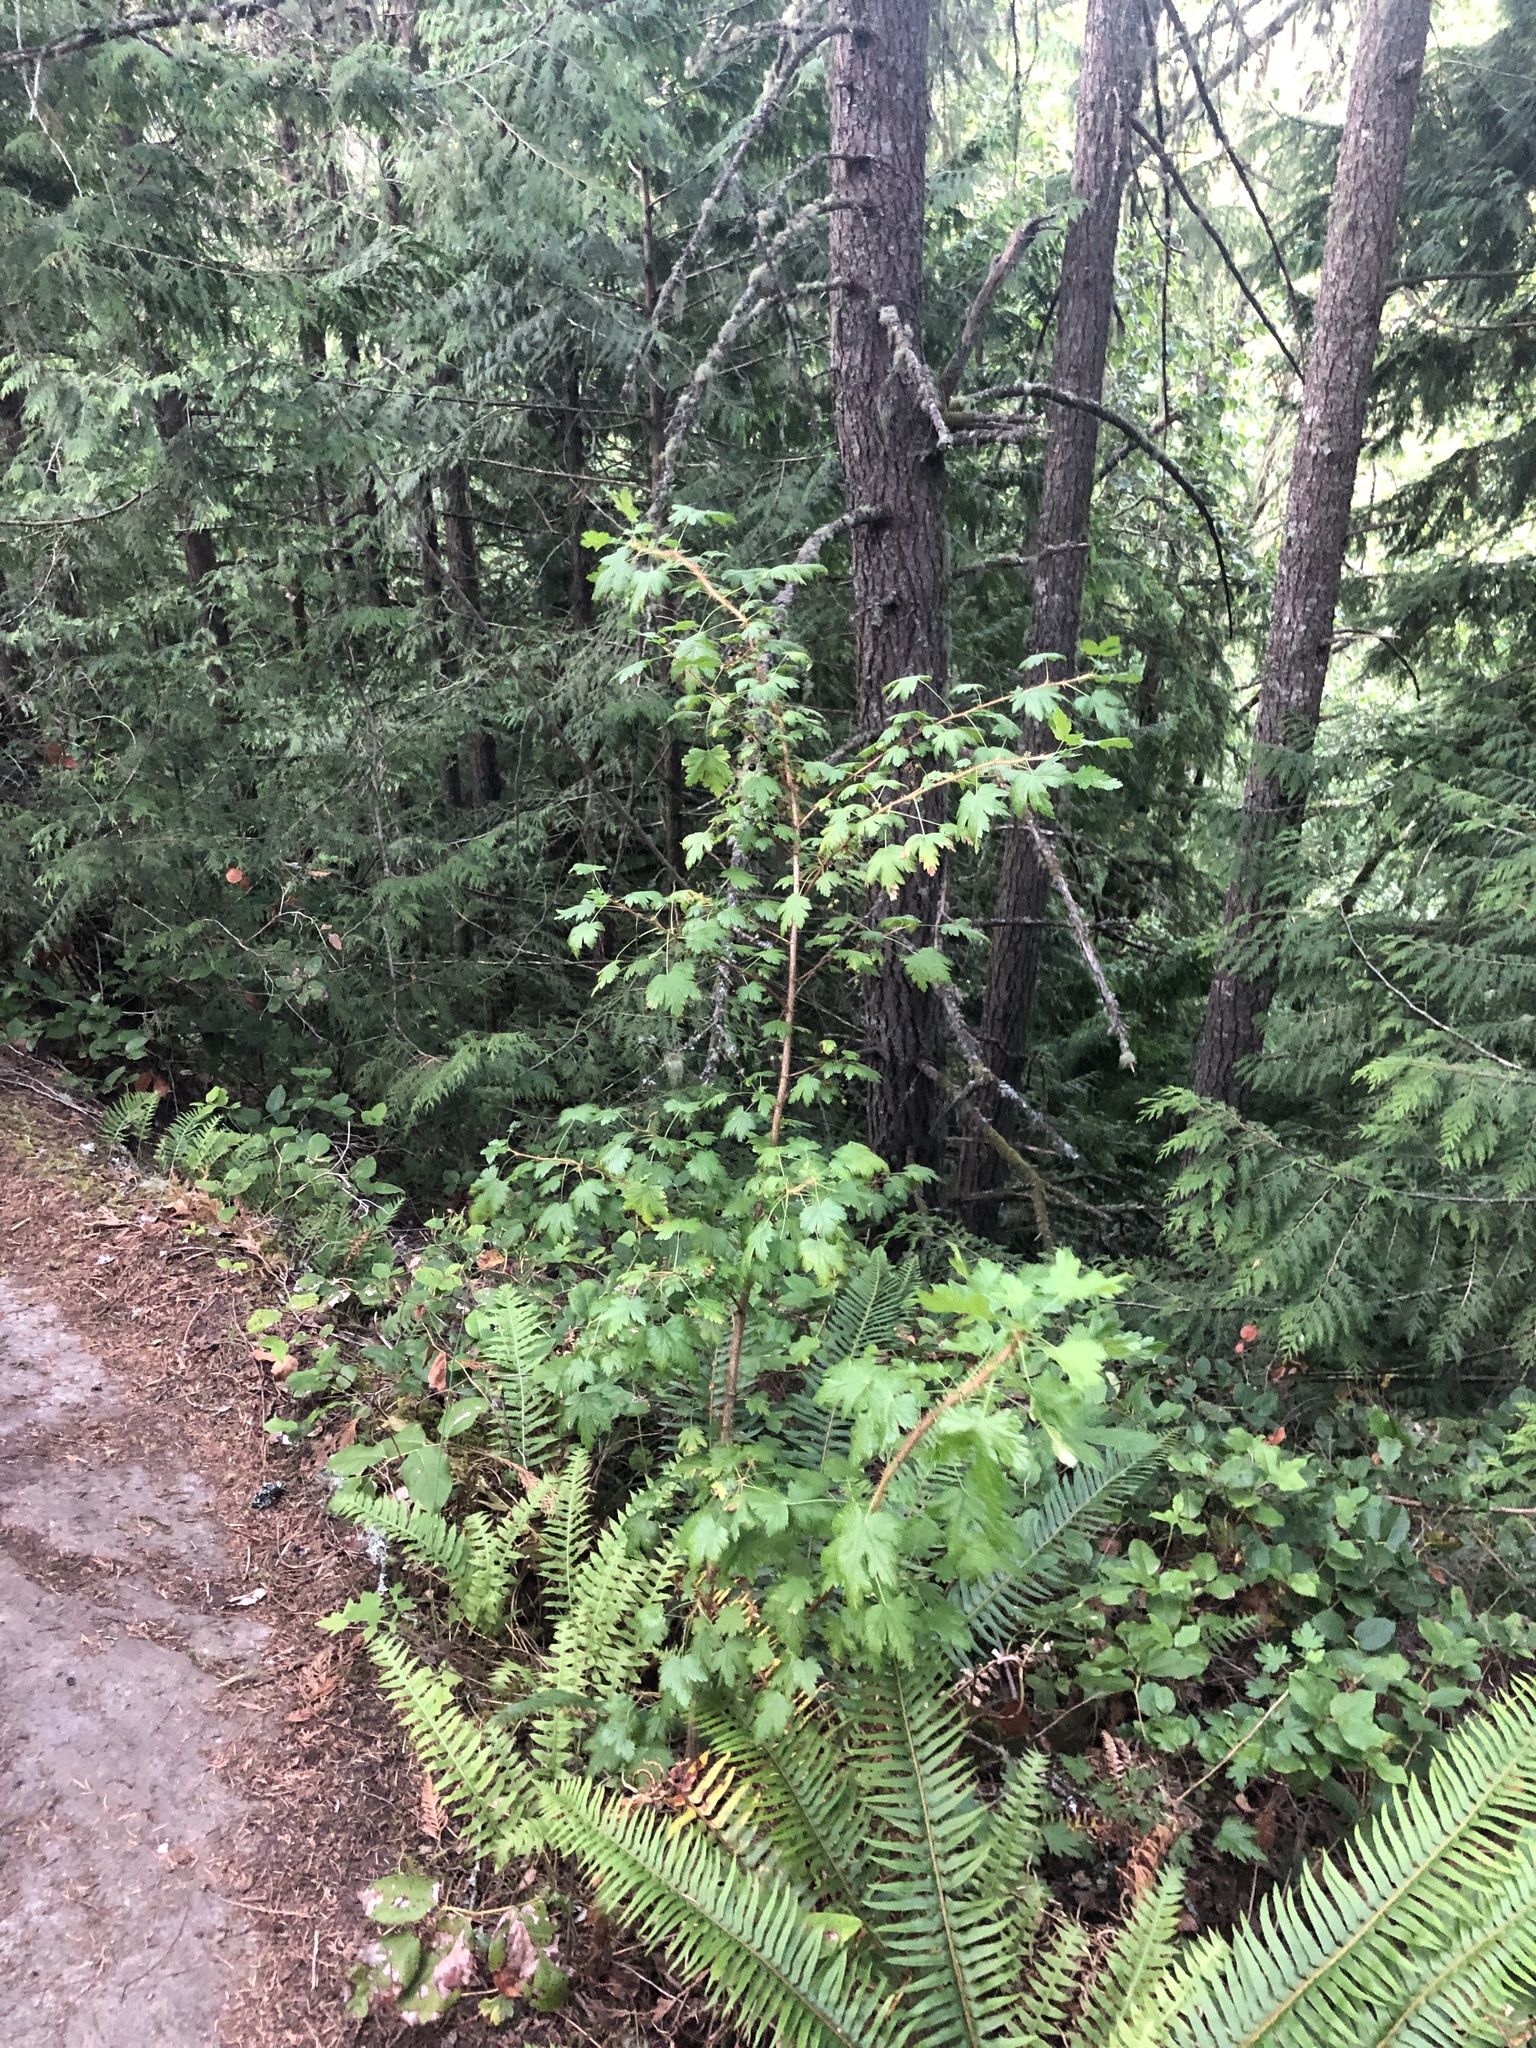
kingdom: Plantae
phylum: Tracheophyta
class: Magnoliopsida
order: Saxifragales
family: Grossulariaceae
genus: Ribes
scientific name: Ribes lacustre
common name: Black gooseberry
